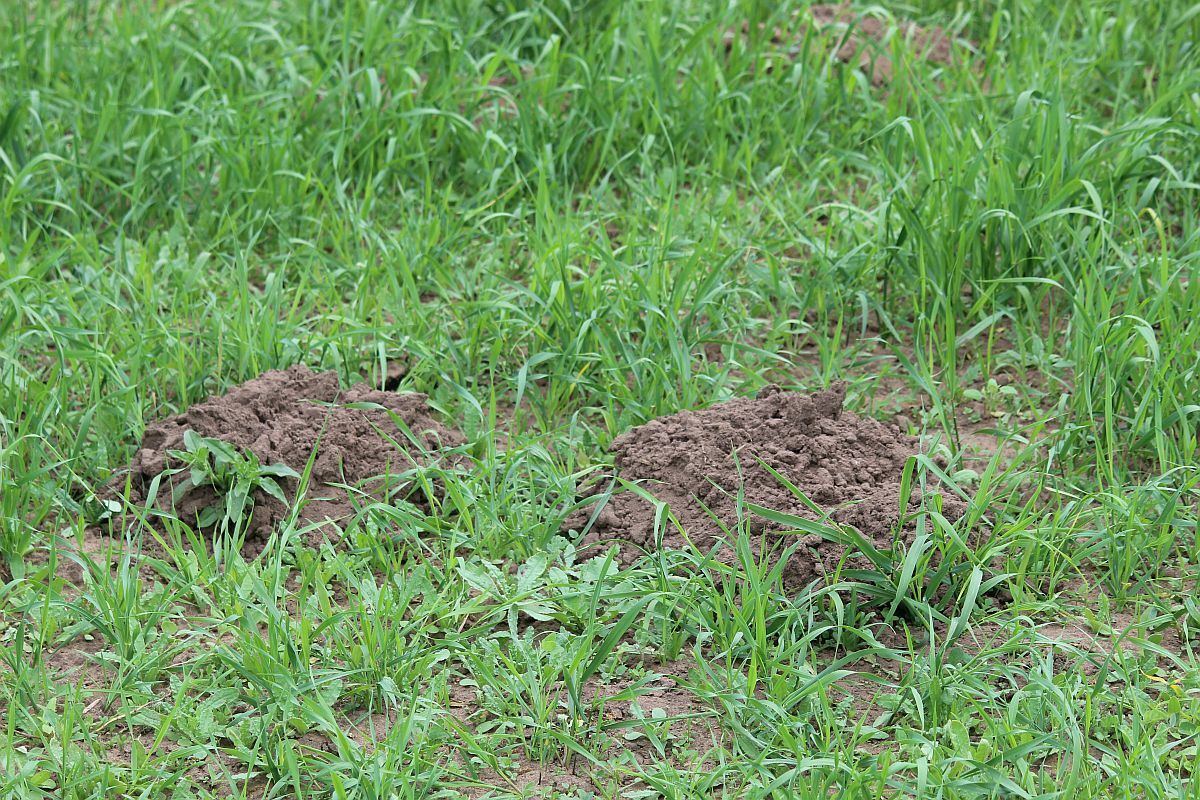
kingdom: Animalia
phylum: Chordata
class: Mammalia
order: Soricomorpha
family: Talpidae
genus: Talpa
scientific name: Talpa europaea
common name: European mole
